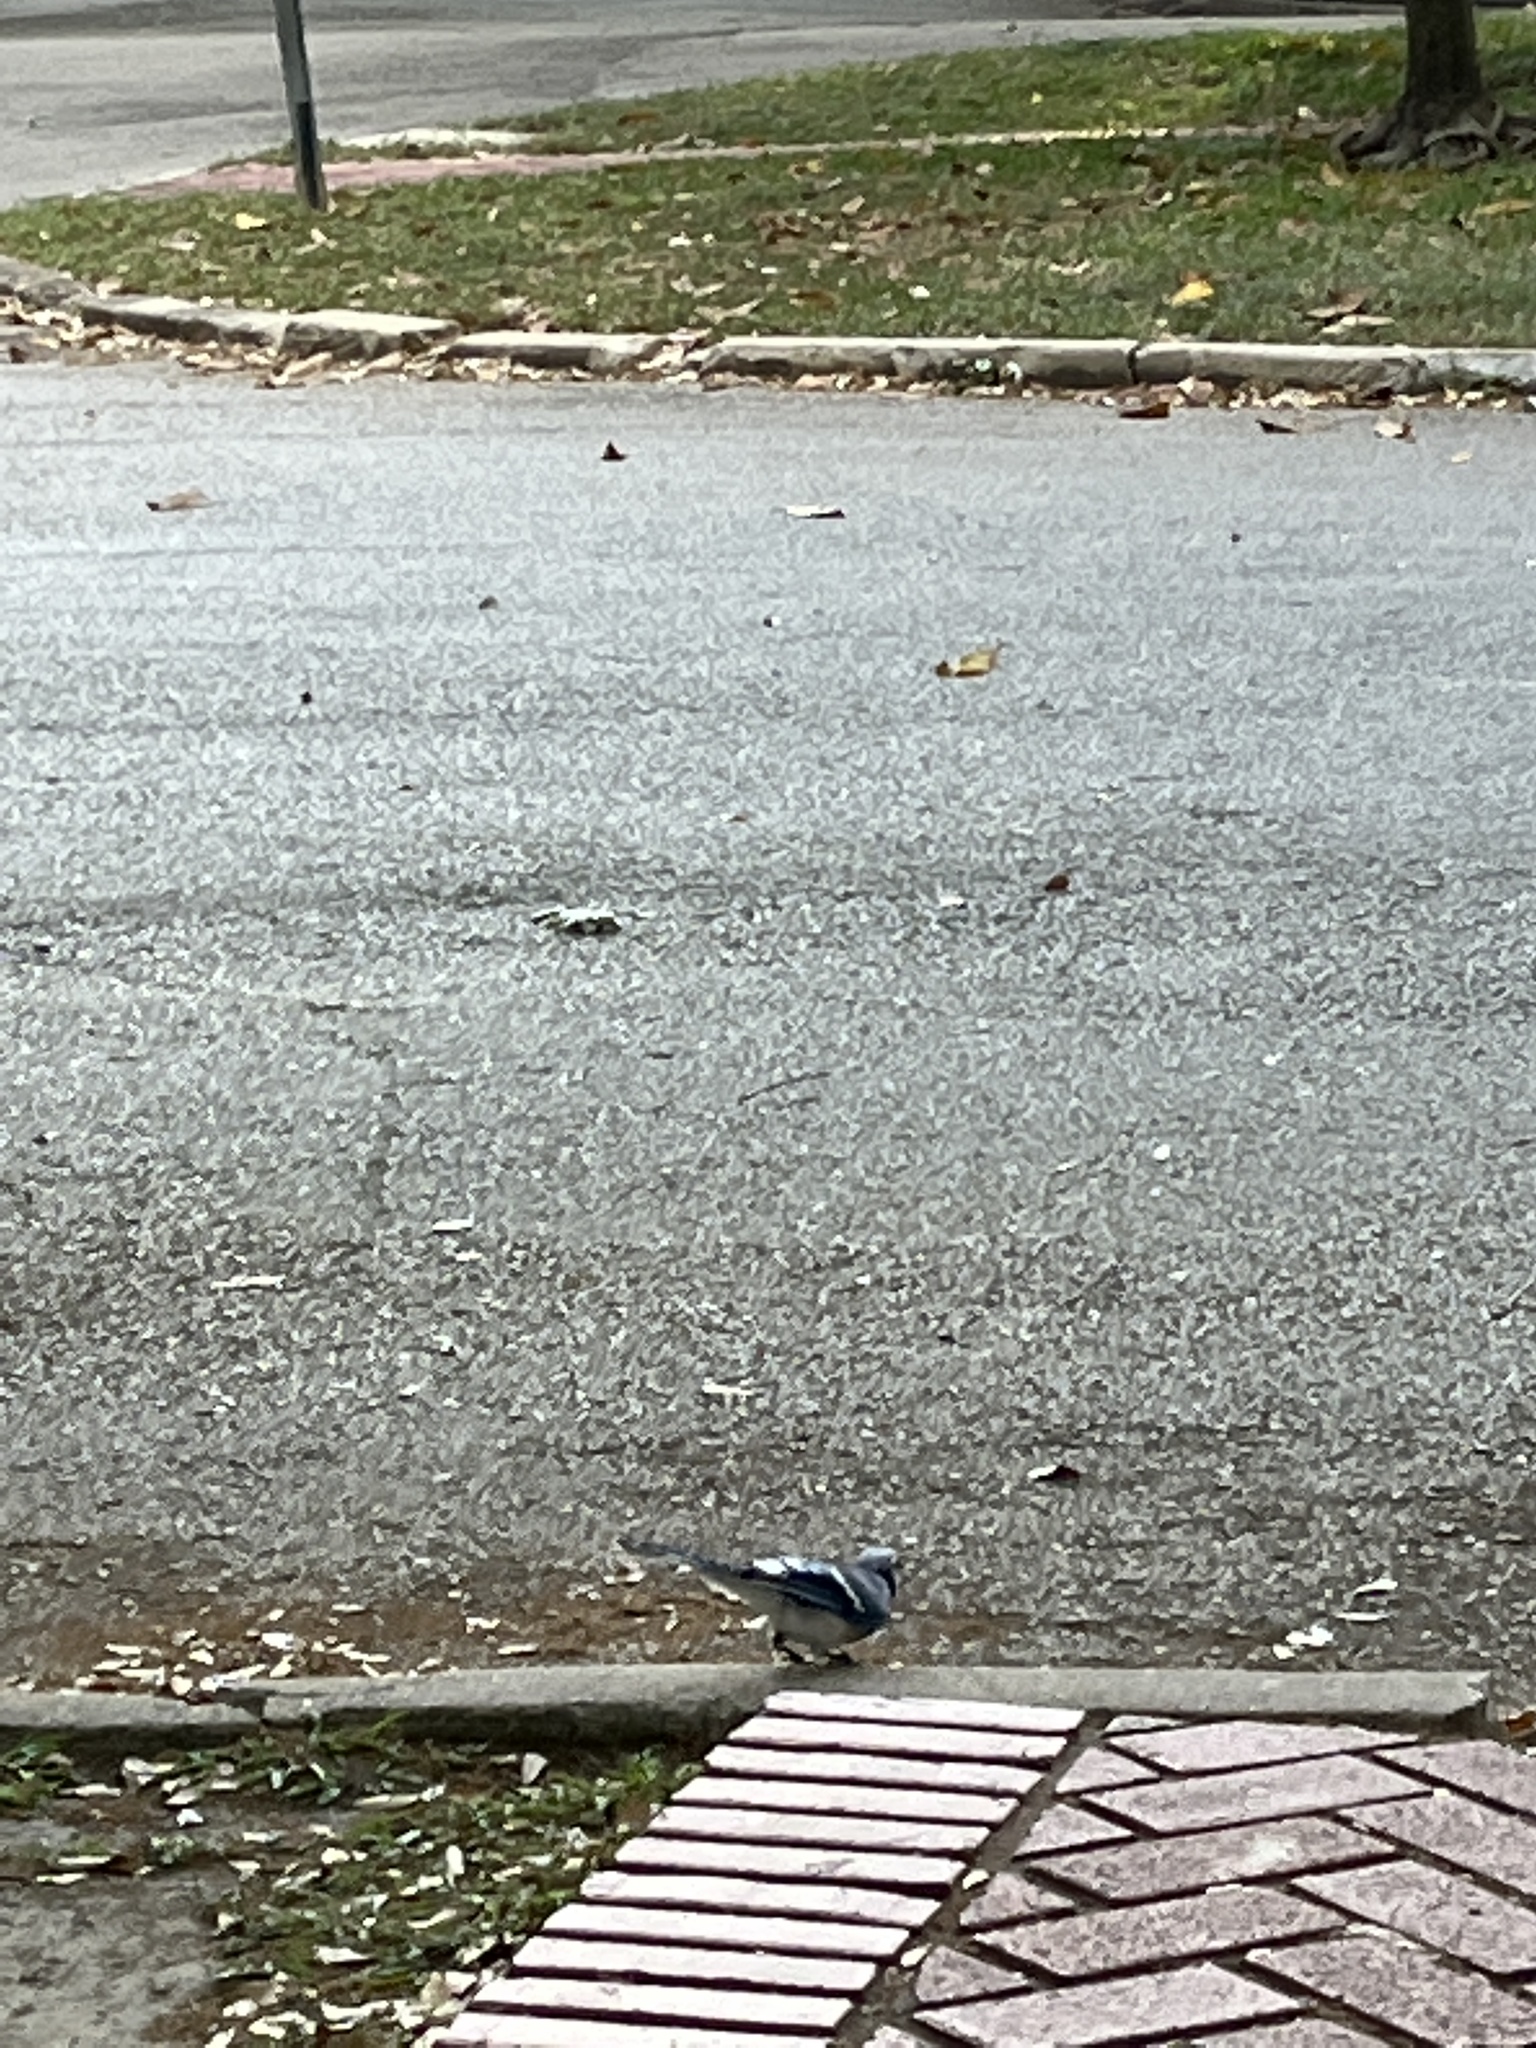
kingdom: Animalia
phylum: Chordata
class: Aves
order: Passeriformes
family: Corvidae
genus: Cyanocitta
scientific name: Cyanocitta cristata
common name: Blue jay
